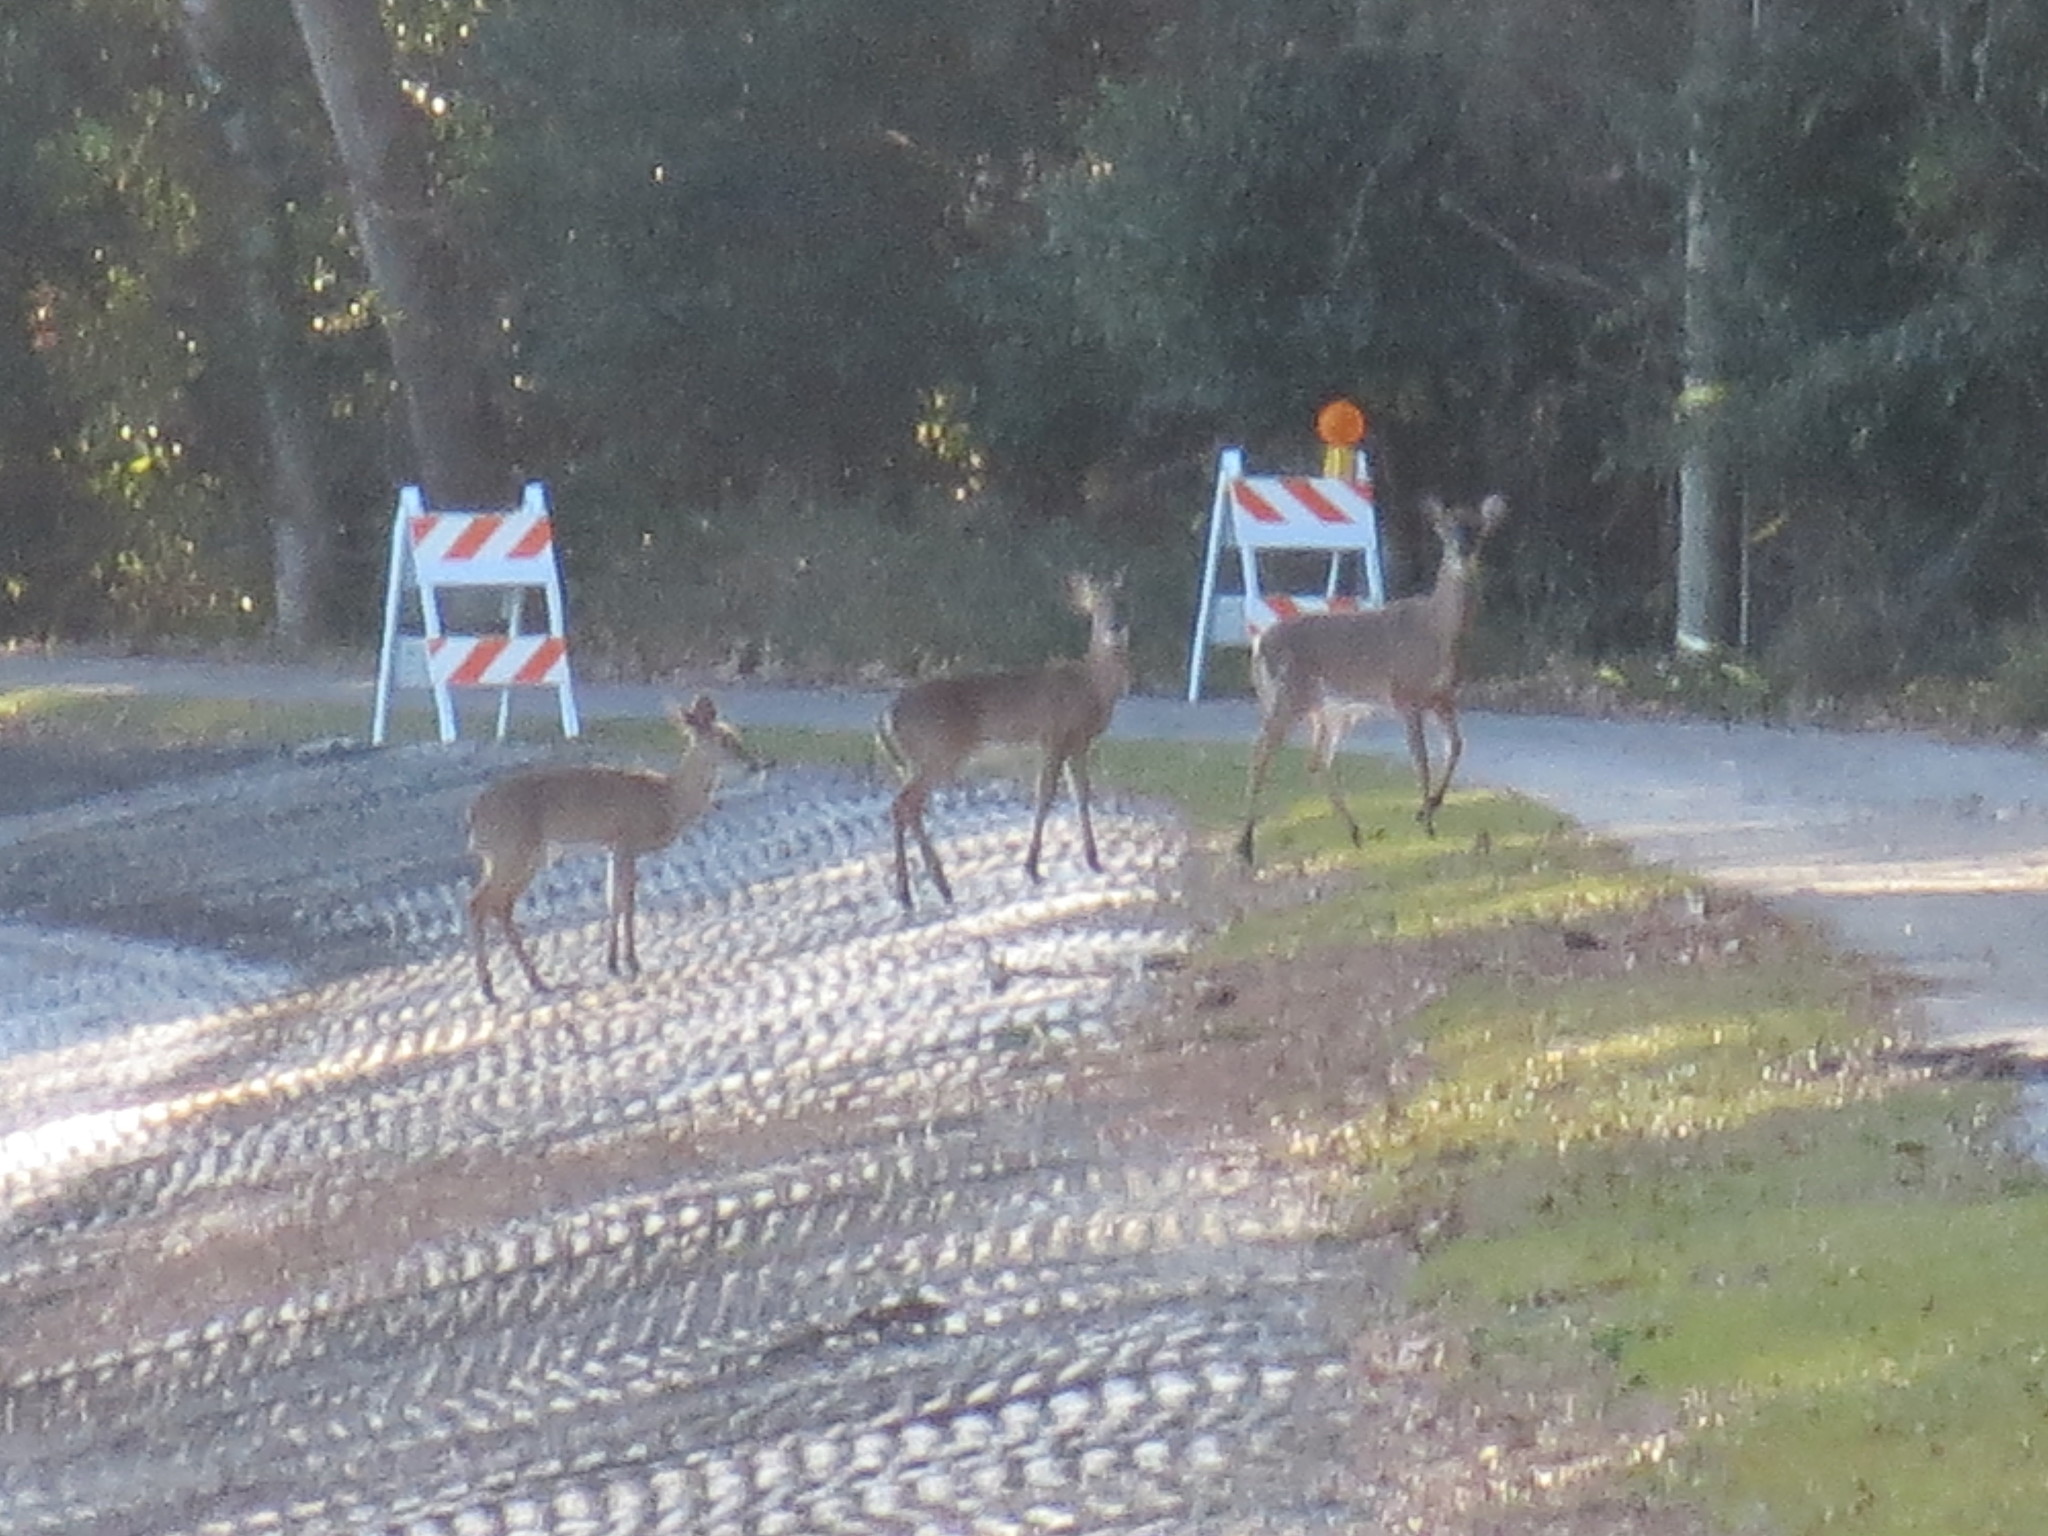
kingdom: Animalia
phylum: Chordata
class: Mammalia
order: Artiodactyla
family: Cervidae
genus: Odocoileus
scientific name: Odocoileus virginianus
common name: White-tailed deer
